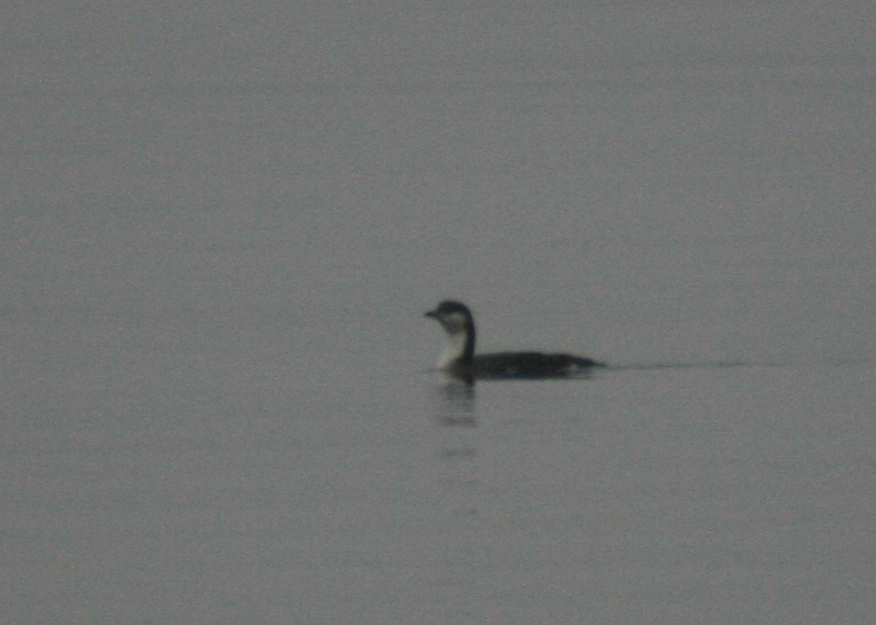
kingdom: Animalia
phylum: Chordata
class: Aves
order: Gaviiformes
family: Gaviidae
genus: Gavia
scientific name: Gavia arctica
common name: Black-throated loon
